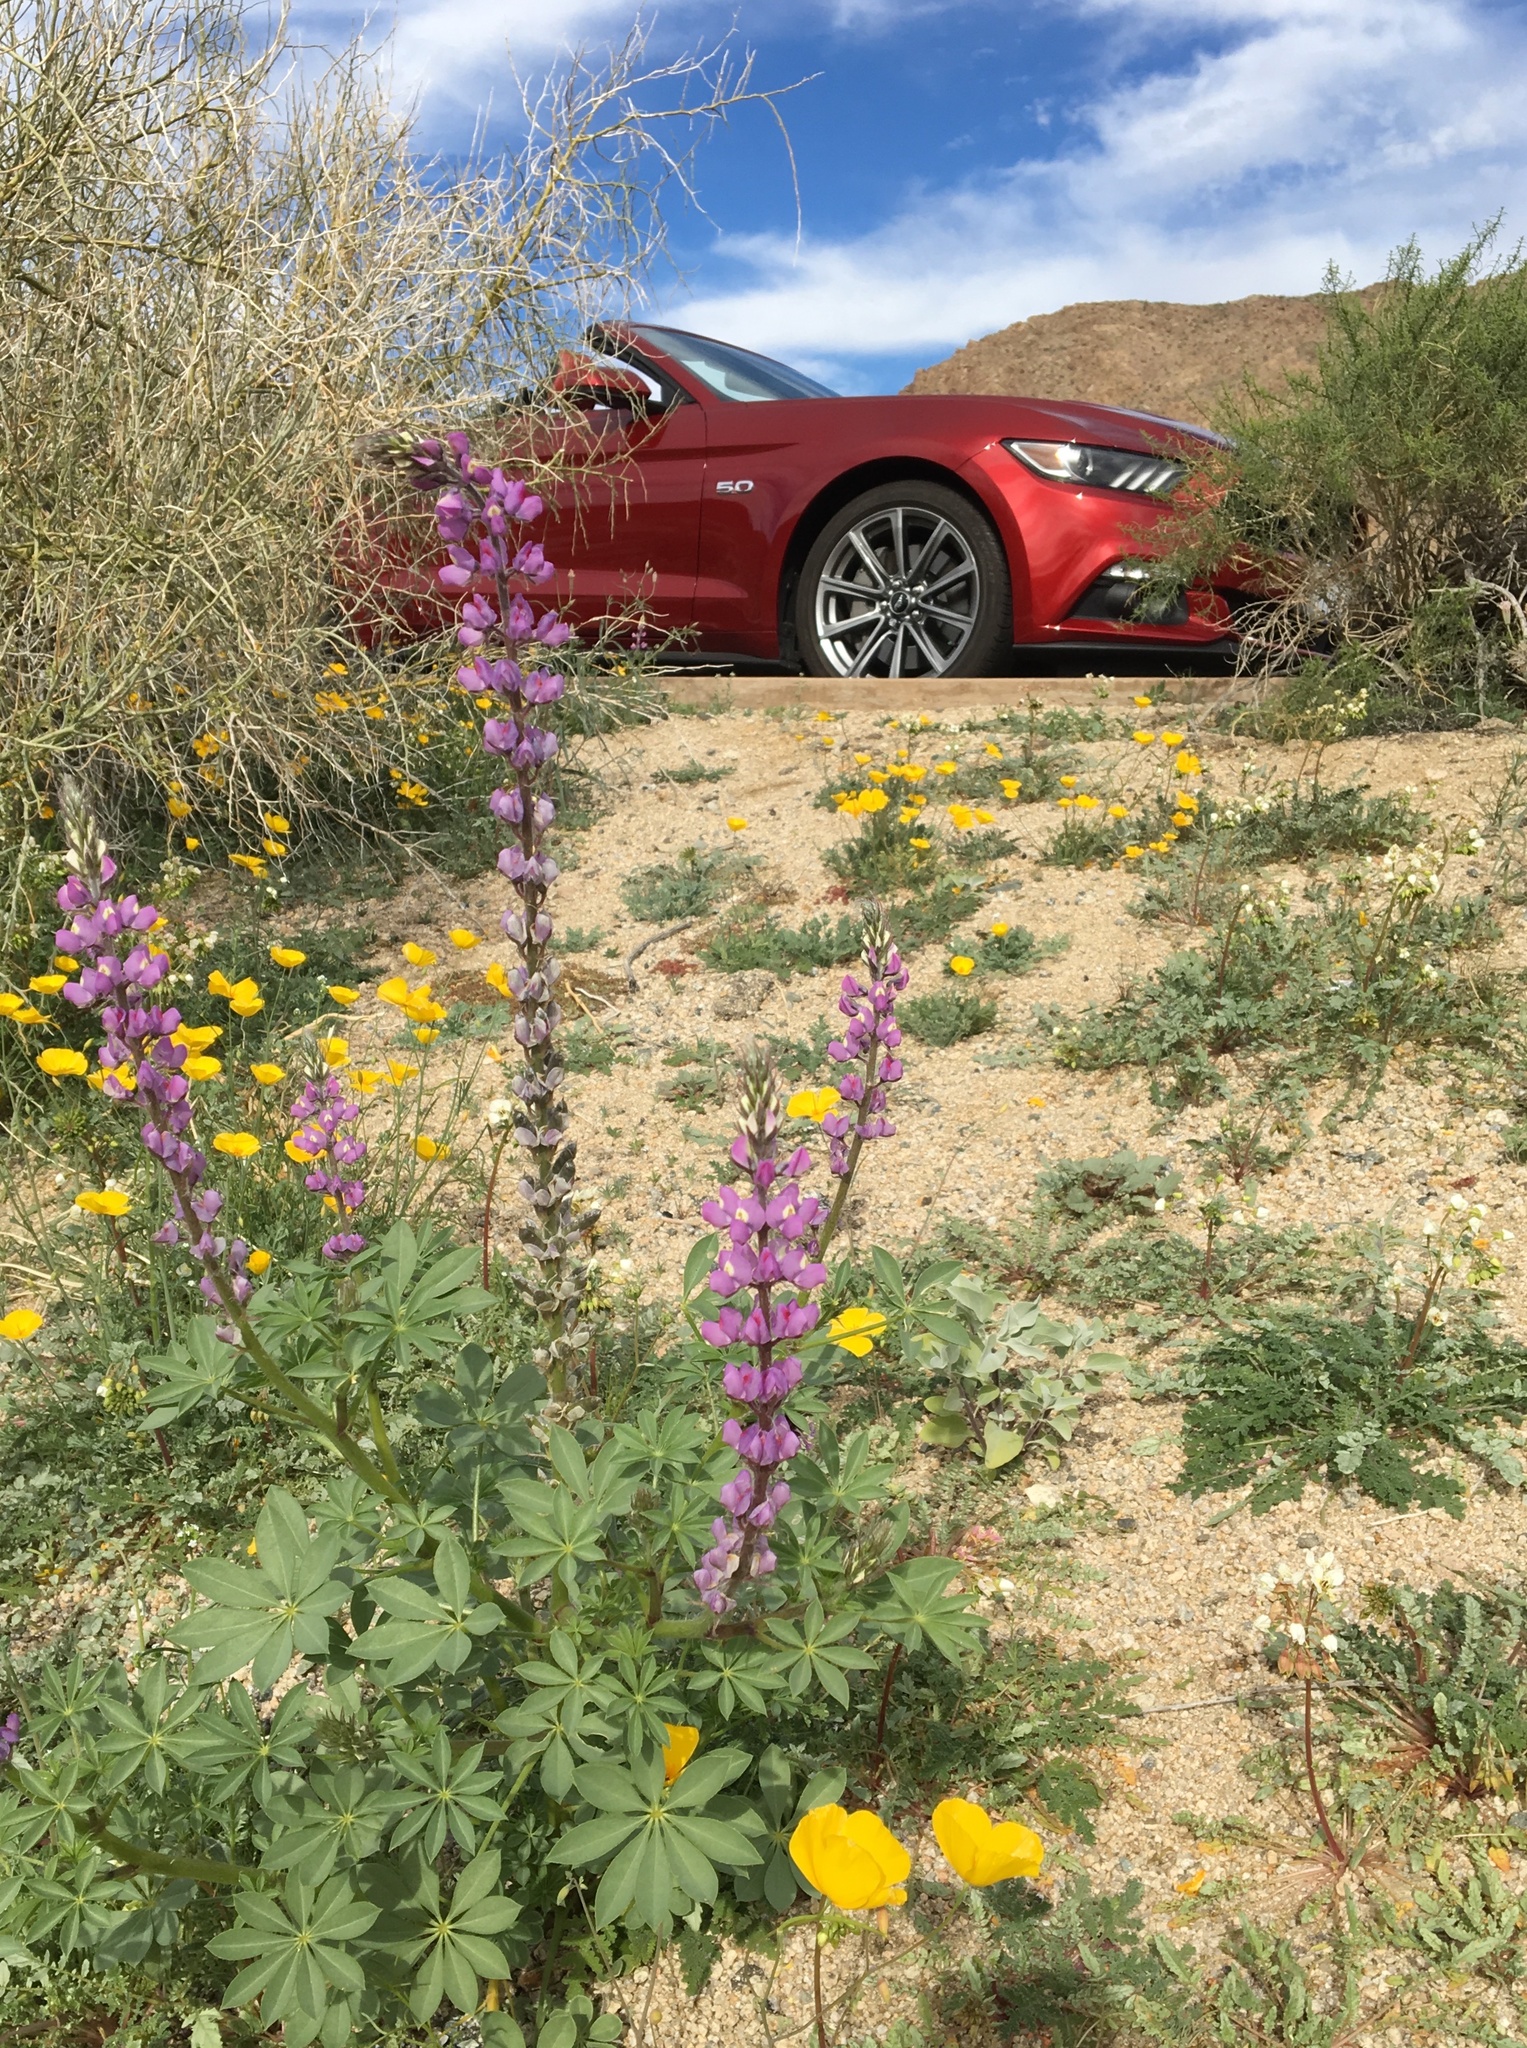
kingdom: Plantae
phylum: Tracheophyta
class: Magnoliopsida
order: Fabales
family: Fabaceae
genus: Lupinus
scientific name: Lupinus arizonicus
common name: Arizona lupine
